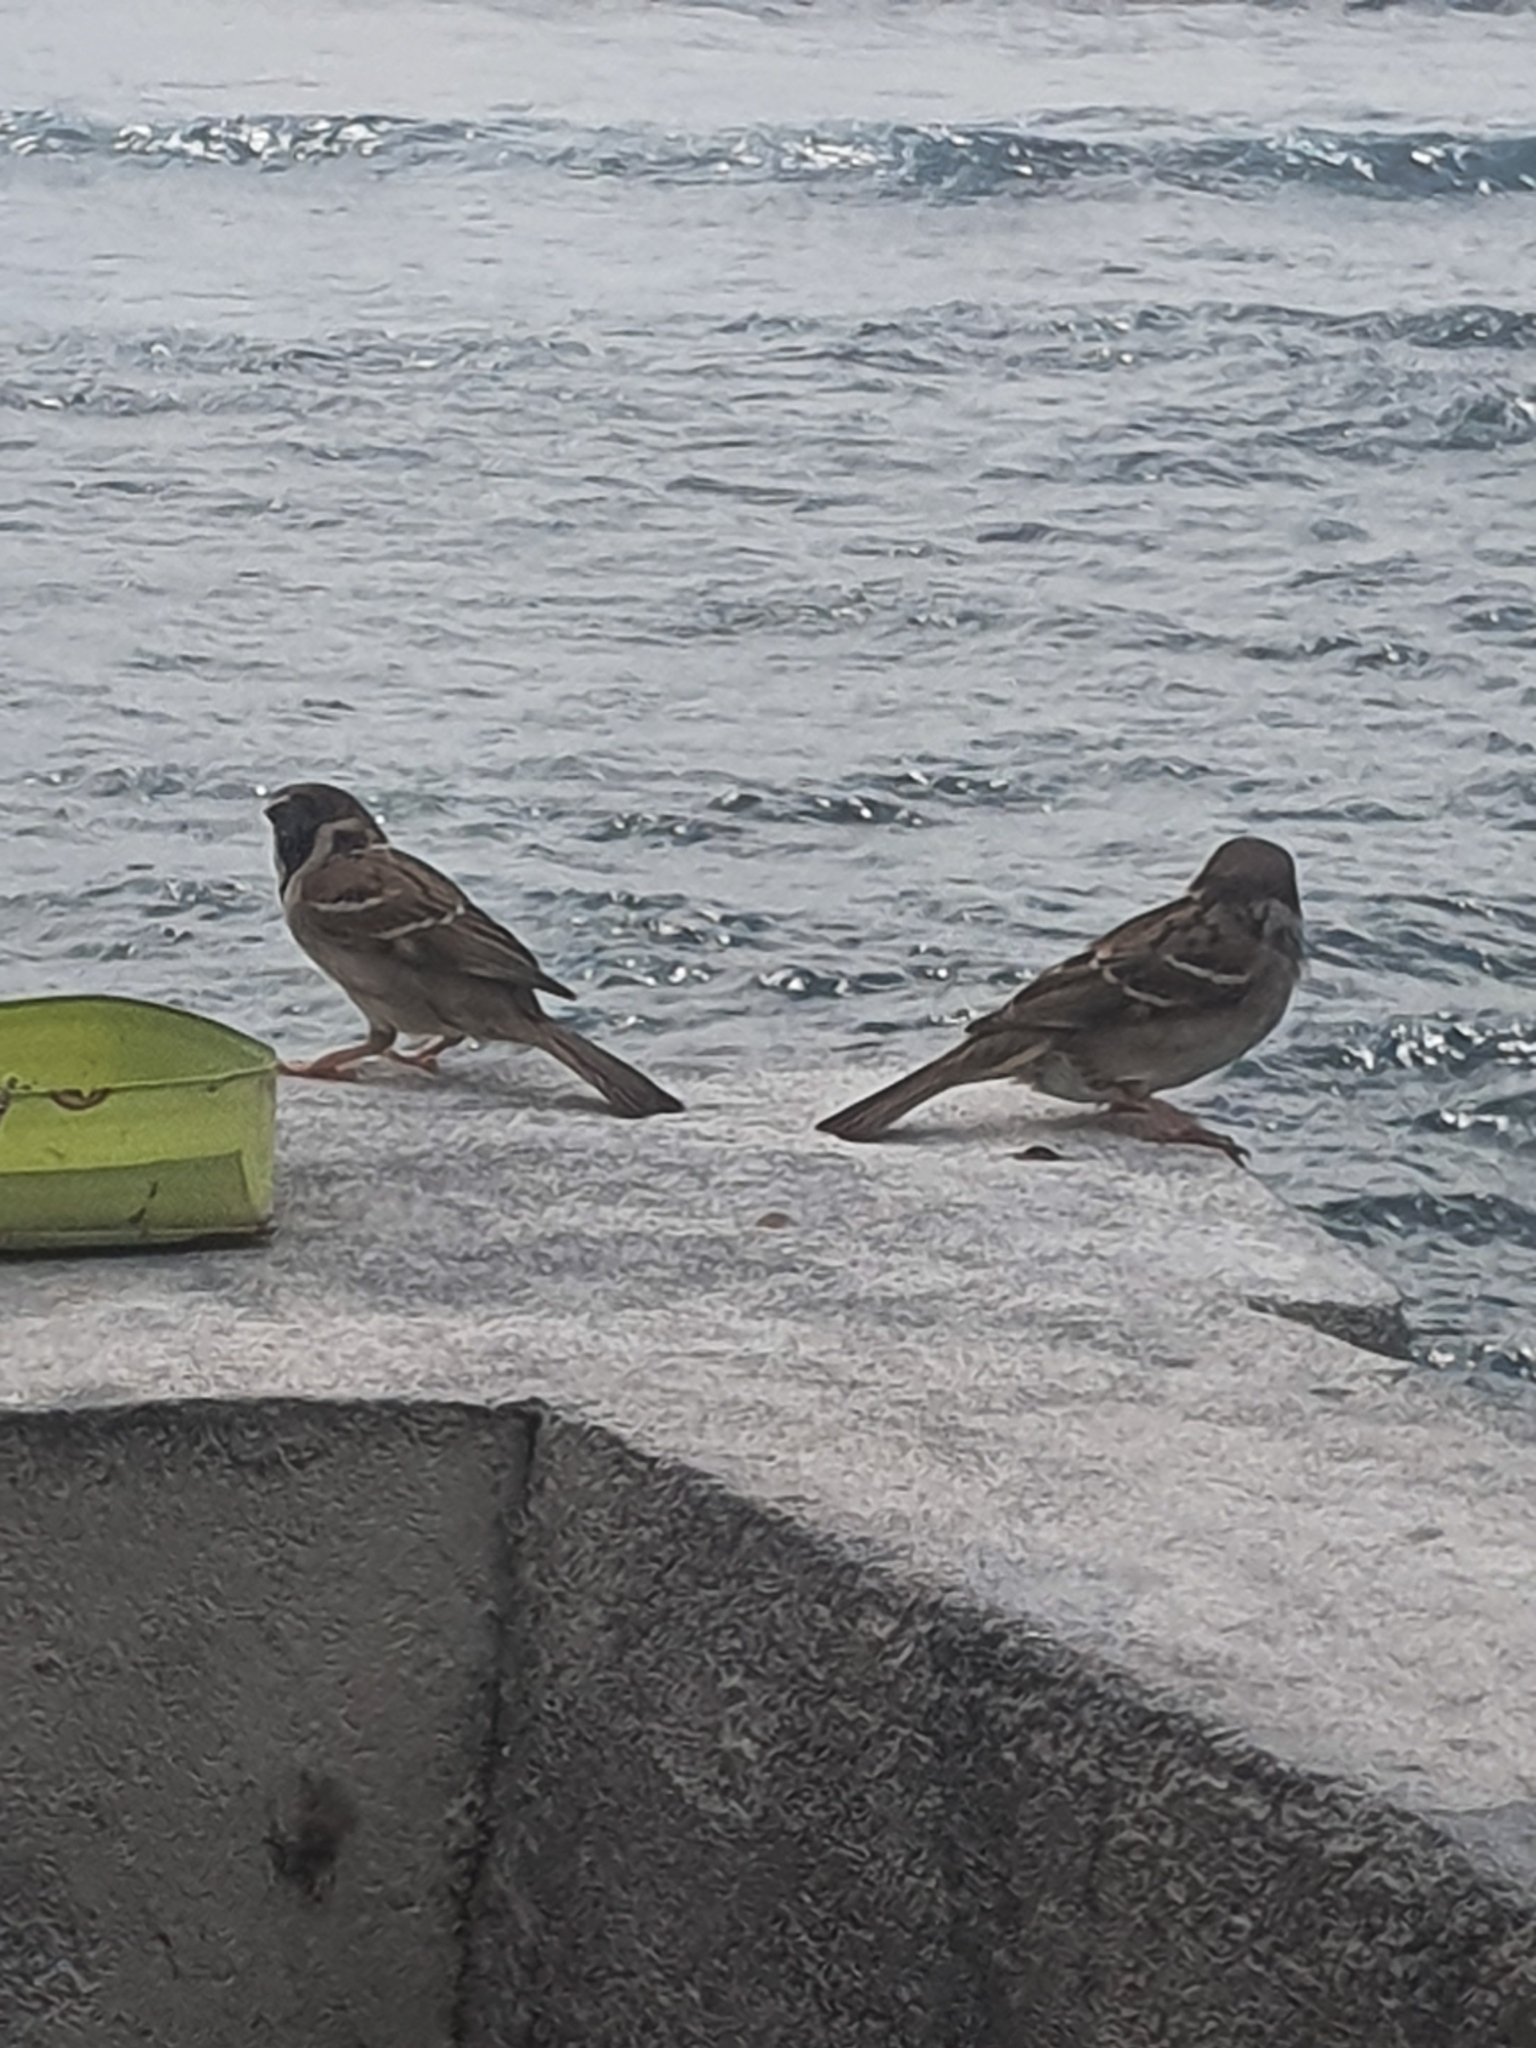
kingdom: Animalia
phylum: Chordata
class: Aves
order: Passeriformes
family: Passeridae
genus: Passer
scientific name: Passer montanus
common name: Eurasian tree sparrow
